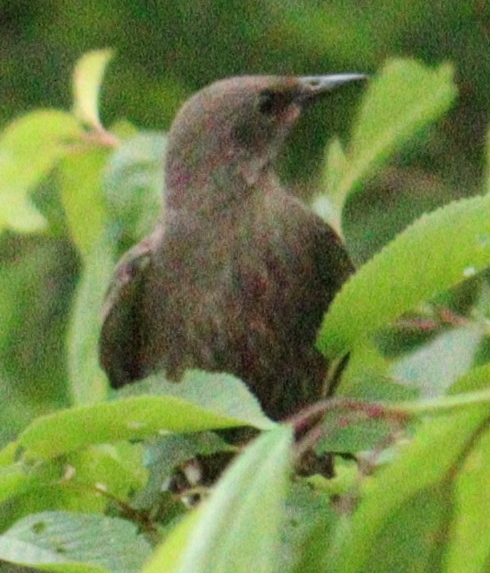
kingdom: Animalia
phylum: Chordata
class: Aves
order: Passeriformes
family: Sturnidae
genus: Sturnus
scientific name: Sturnus vulgaris
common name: Common starling
